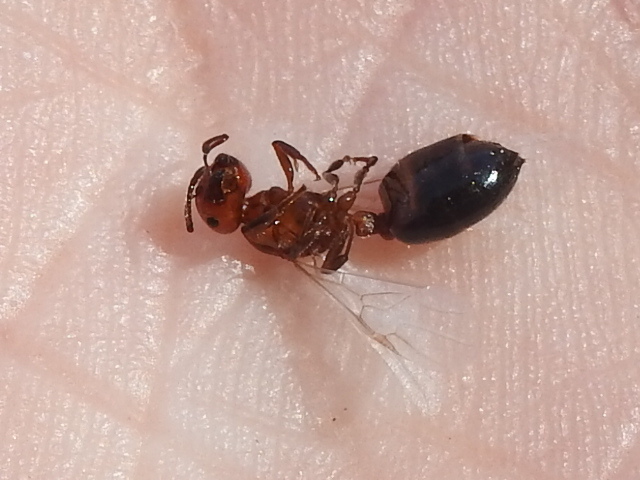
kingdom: Animalia
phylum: Arthropoda
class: Insecta
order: Hymenoptera
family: Formicidae
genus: Crematogaster
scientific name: Crematogaster laeviuscula
